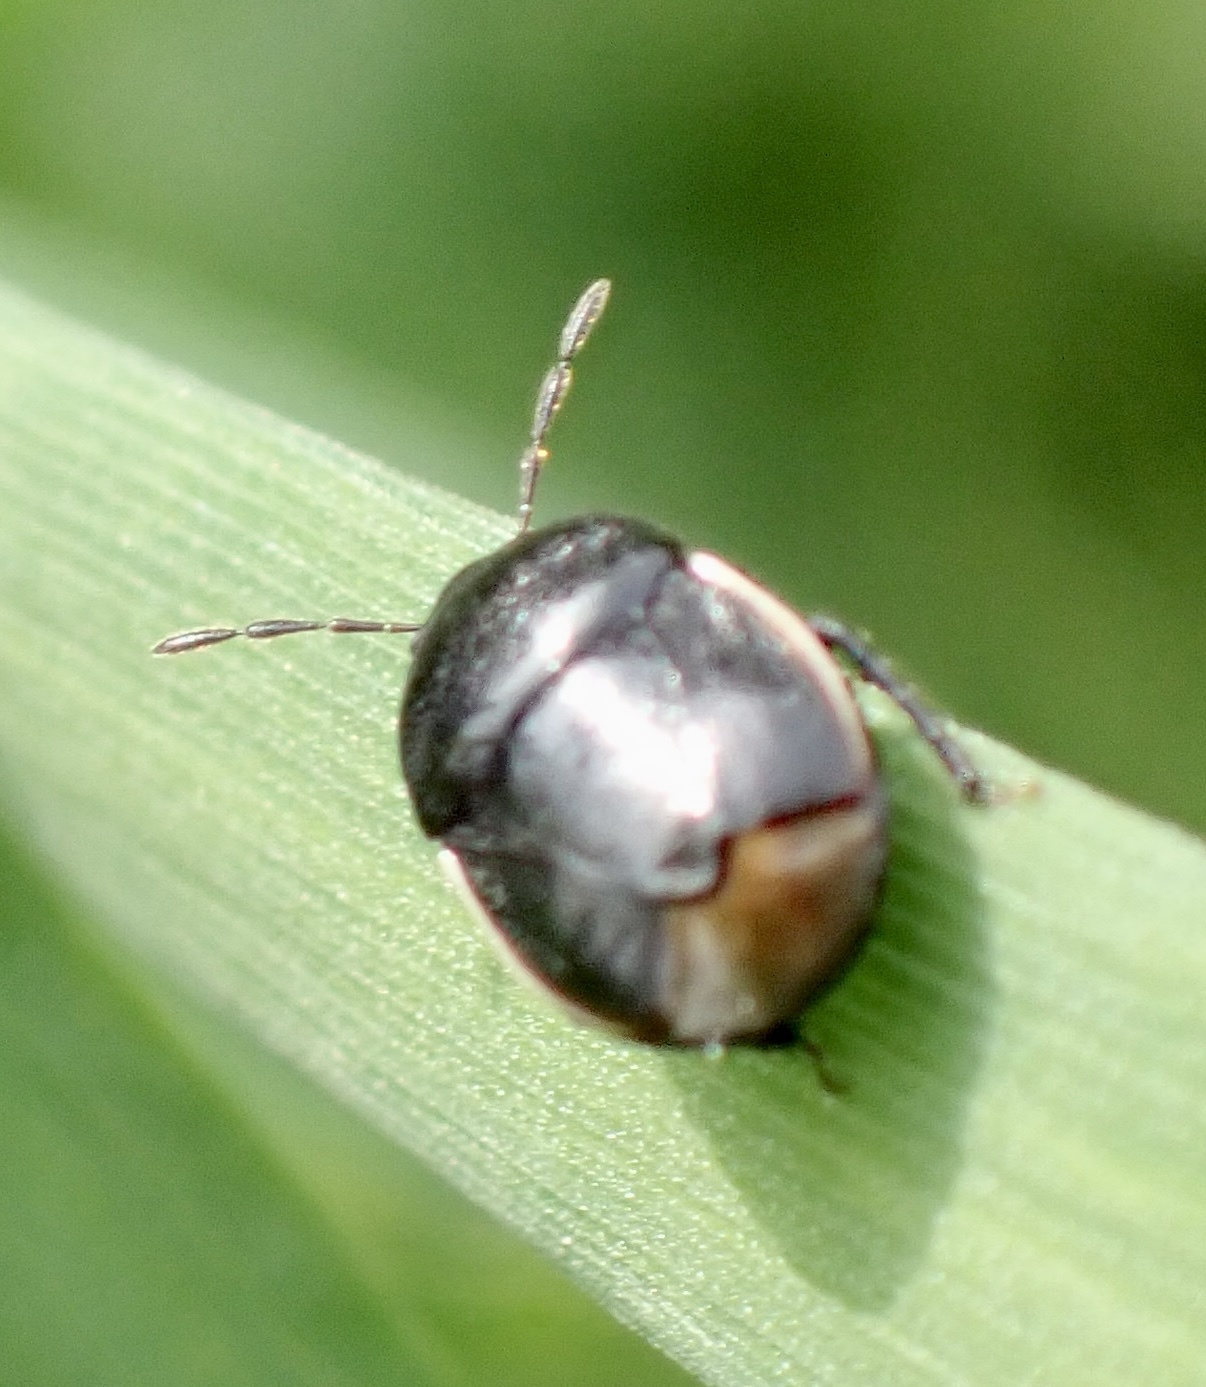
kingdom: Animalia
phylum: Arthropoda
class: Insecta
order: Hemiptera
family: Cydnidae
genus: Legnotus
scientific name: Legnotus limbosus
